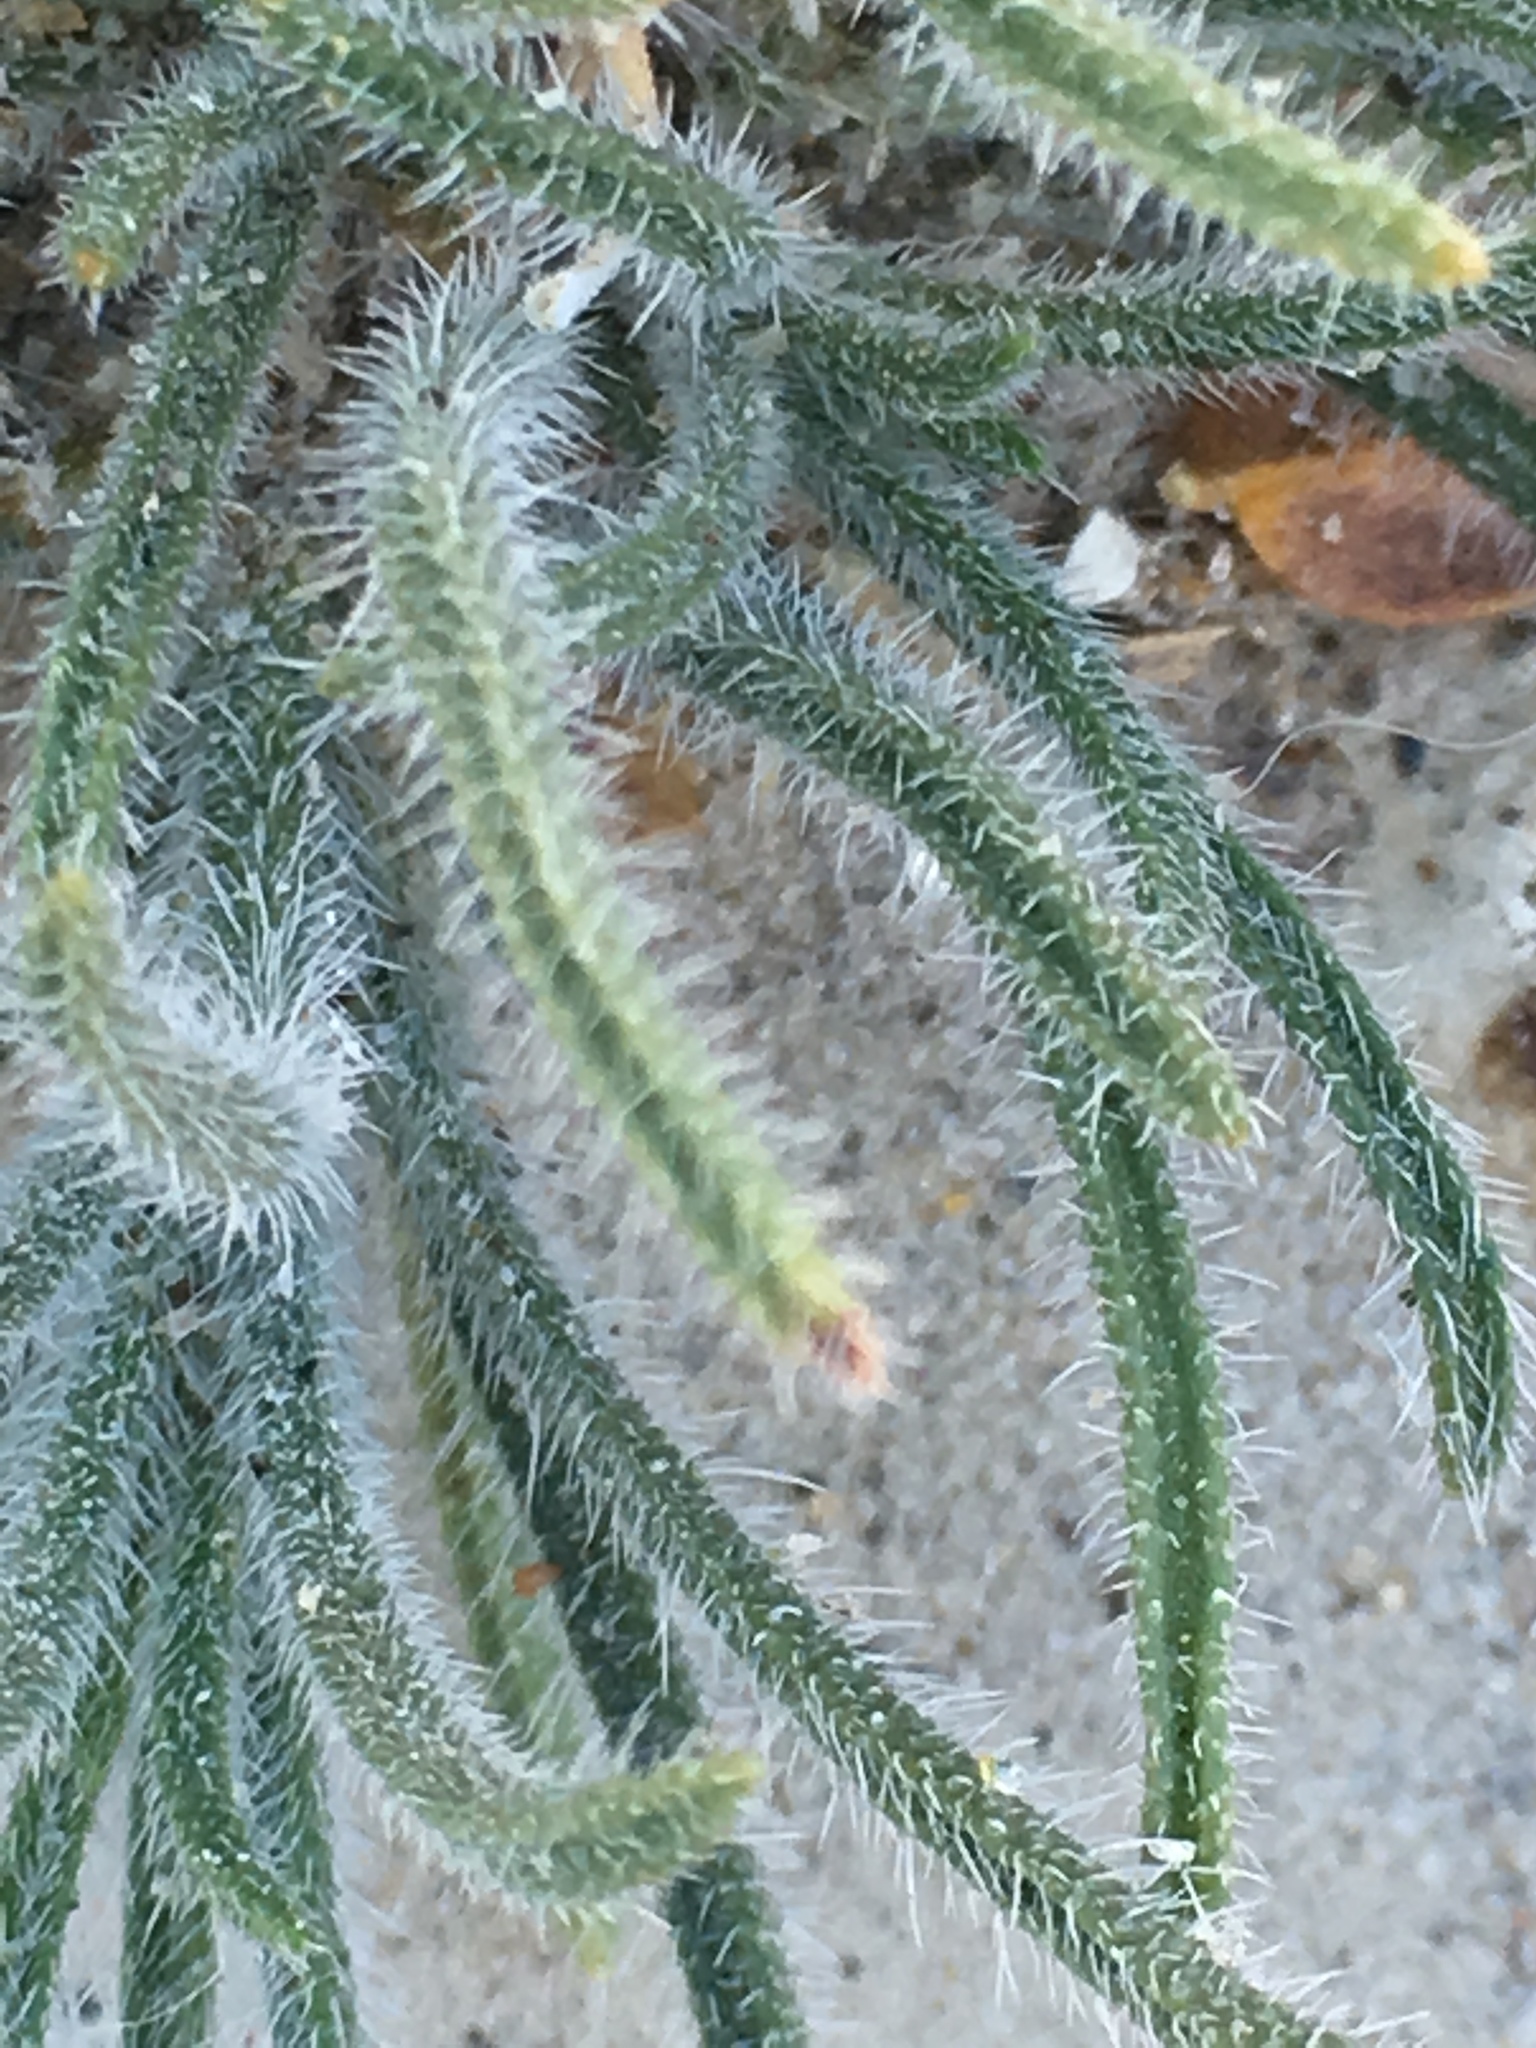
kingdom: Plantae
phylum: Tracheophyta
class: Magnoliopsida
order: Boraginales
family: Boraginaceae
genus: Johnstonella
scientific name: Johnstonella angustifolia
